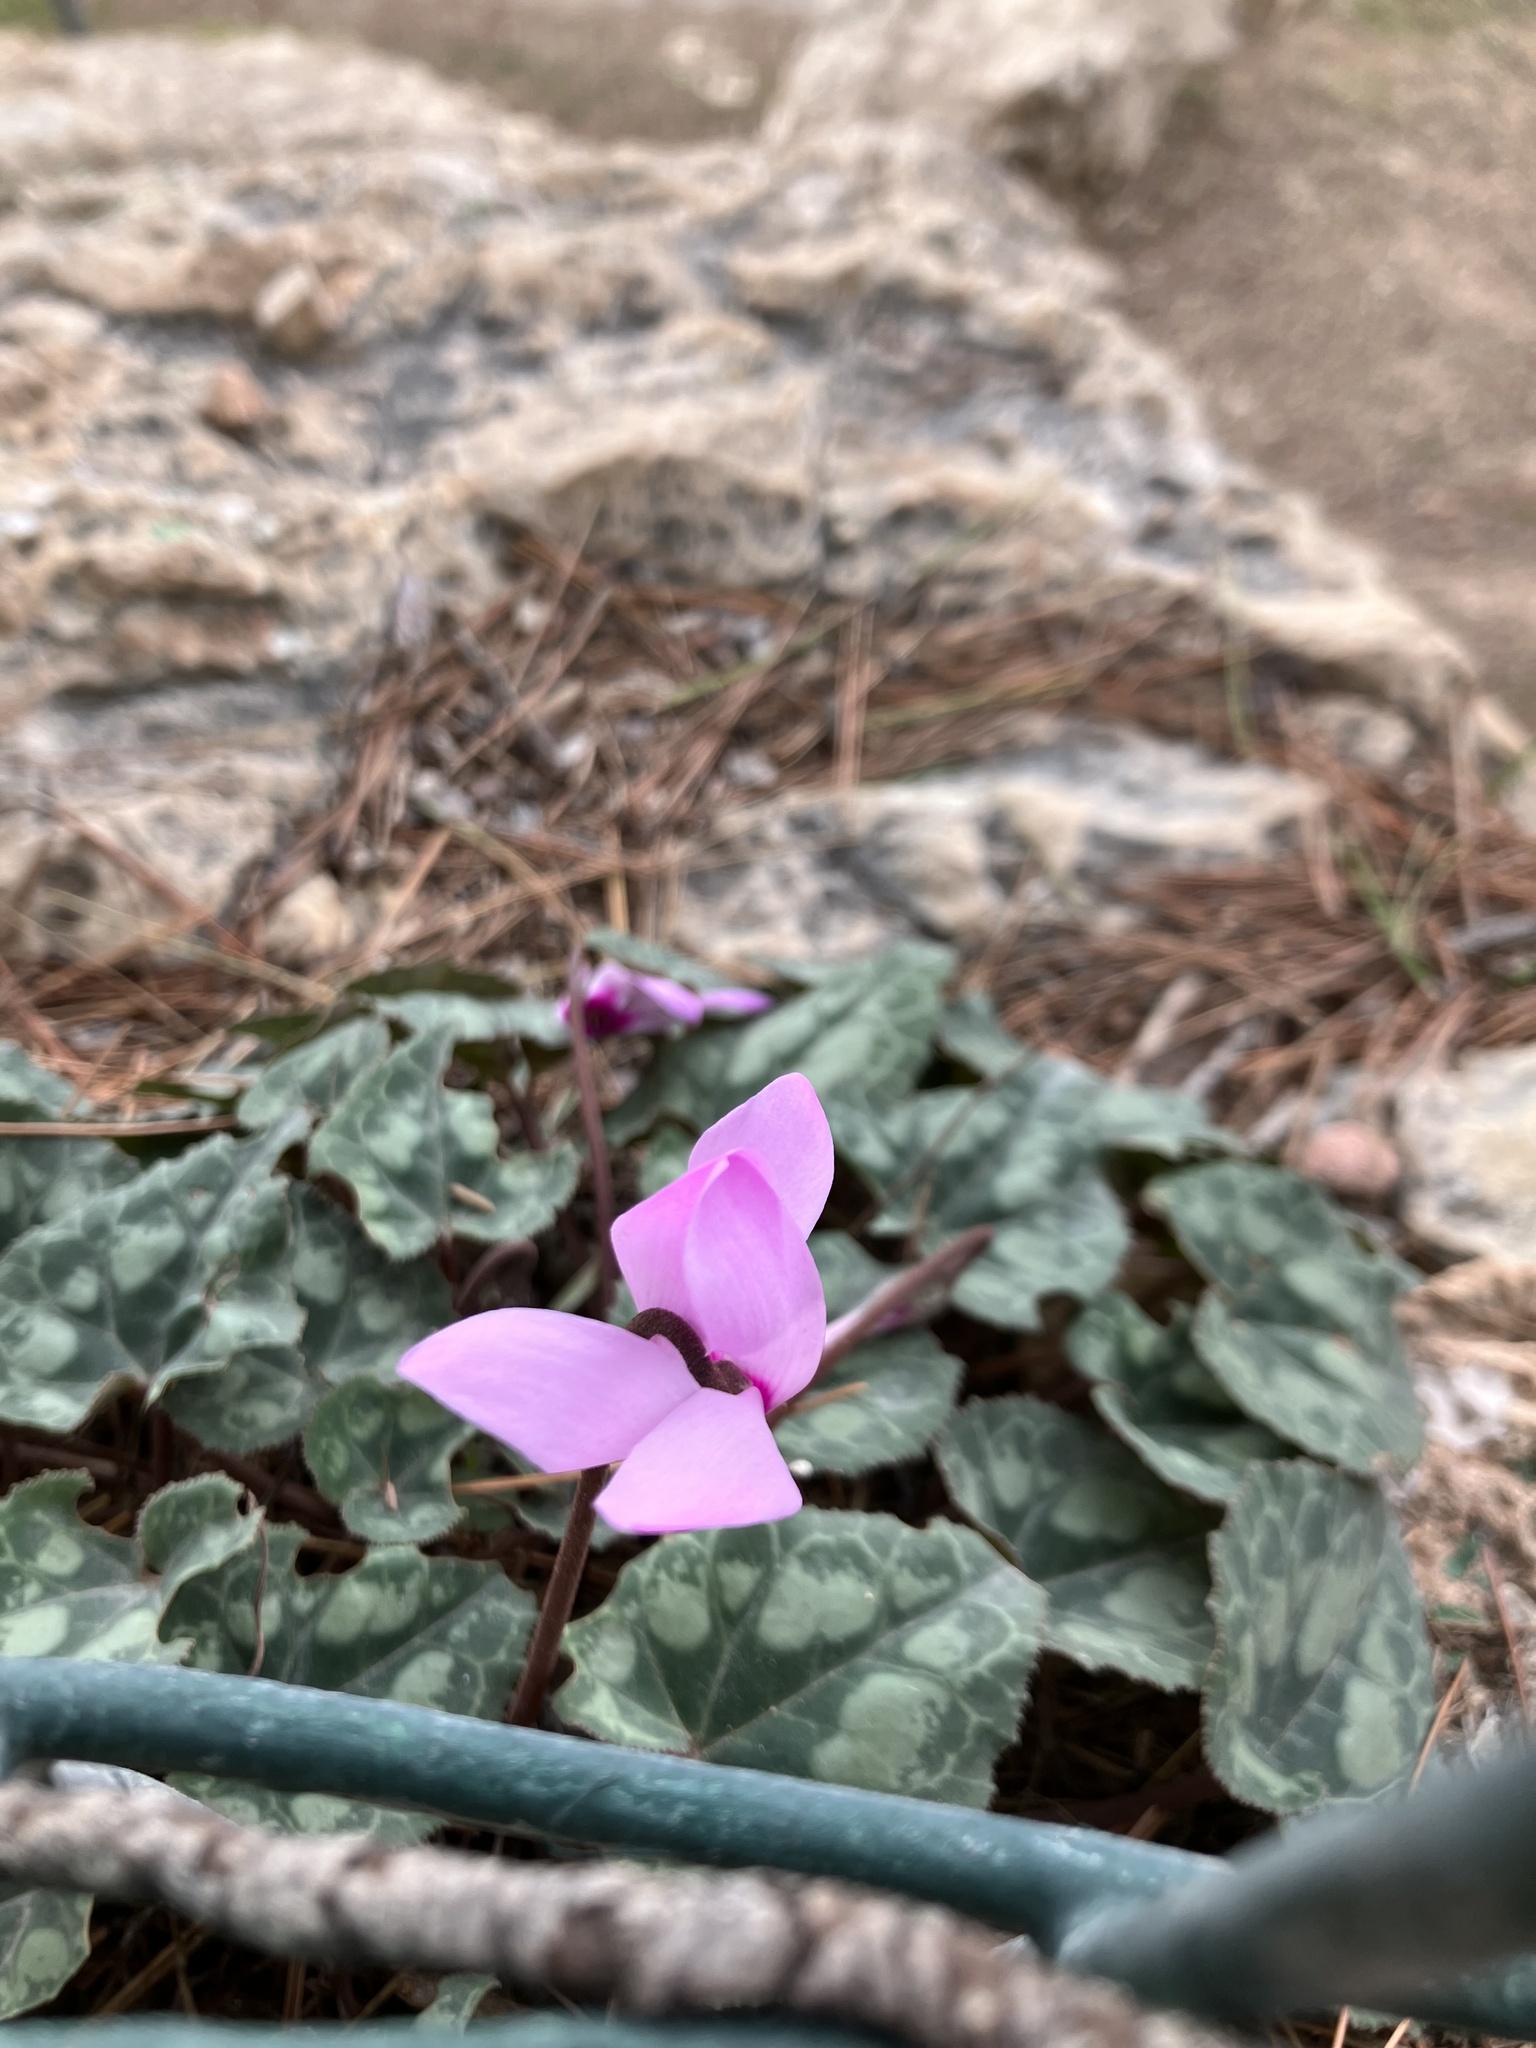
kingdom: Plantae
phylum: Tracheophyta
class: Magnoliopsida
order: Ericales
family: Primulaceae
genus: Cyclamen
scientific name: Cyclamen persicum
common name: Florist's cyclamen
